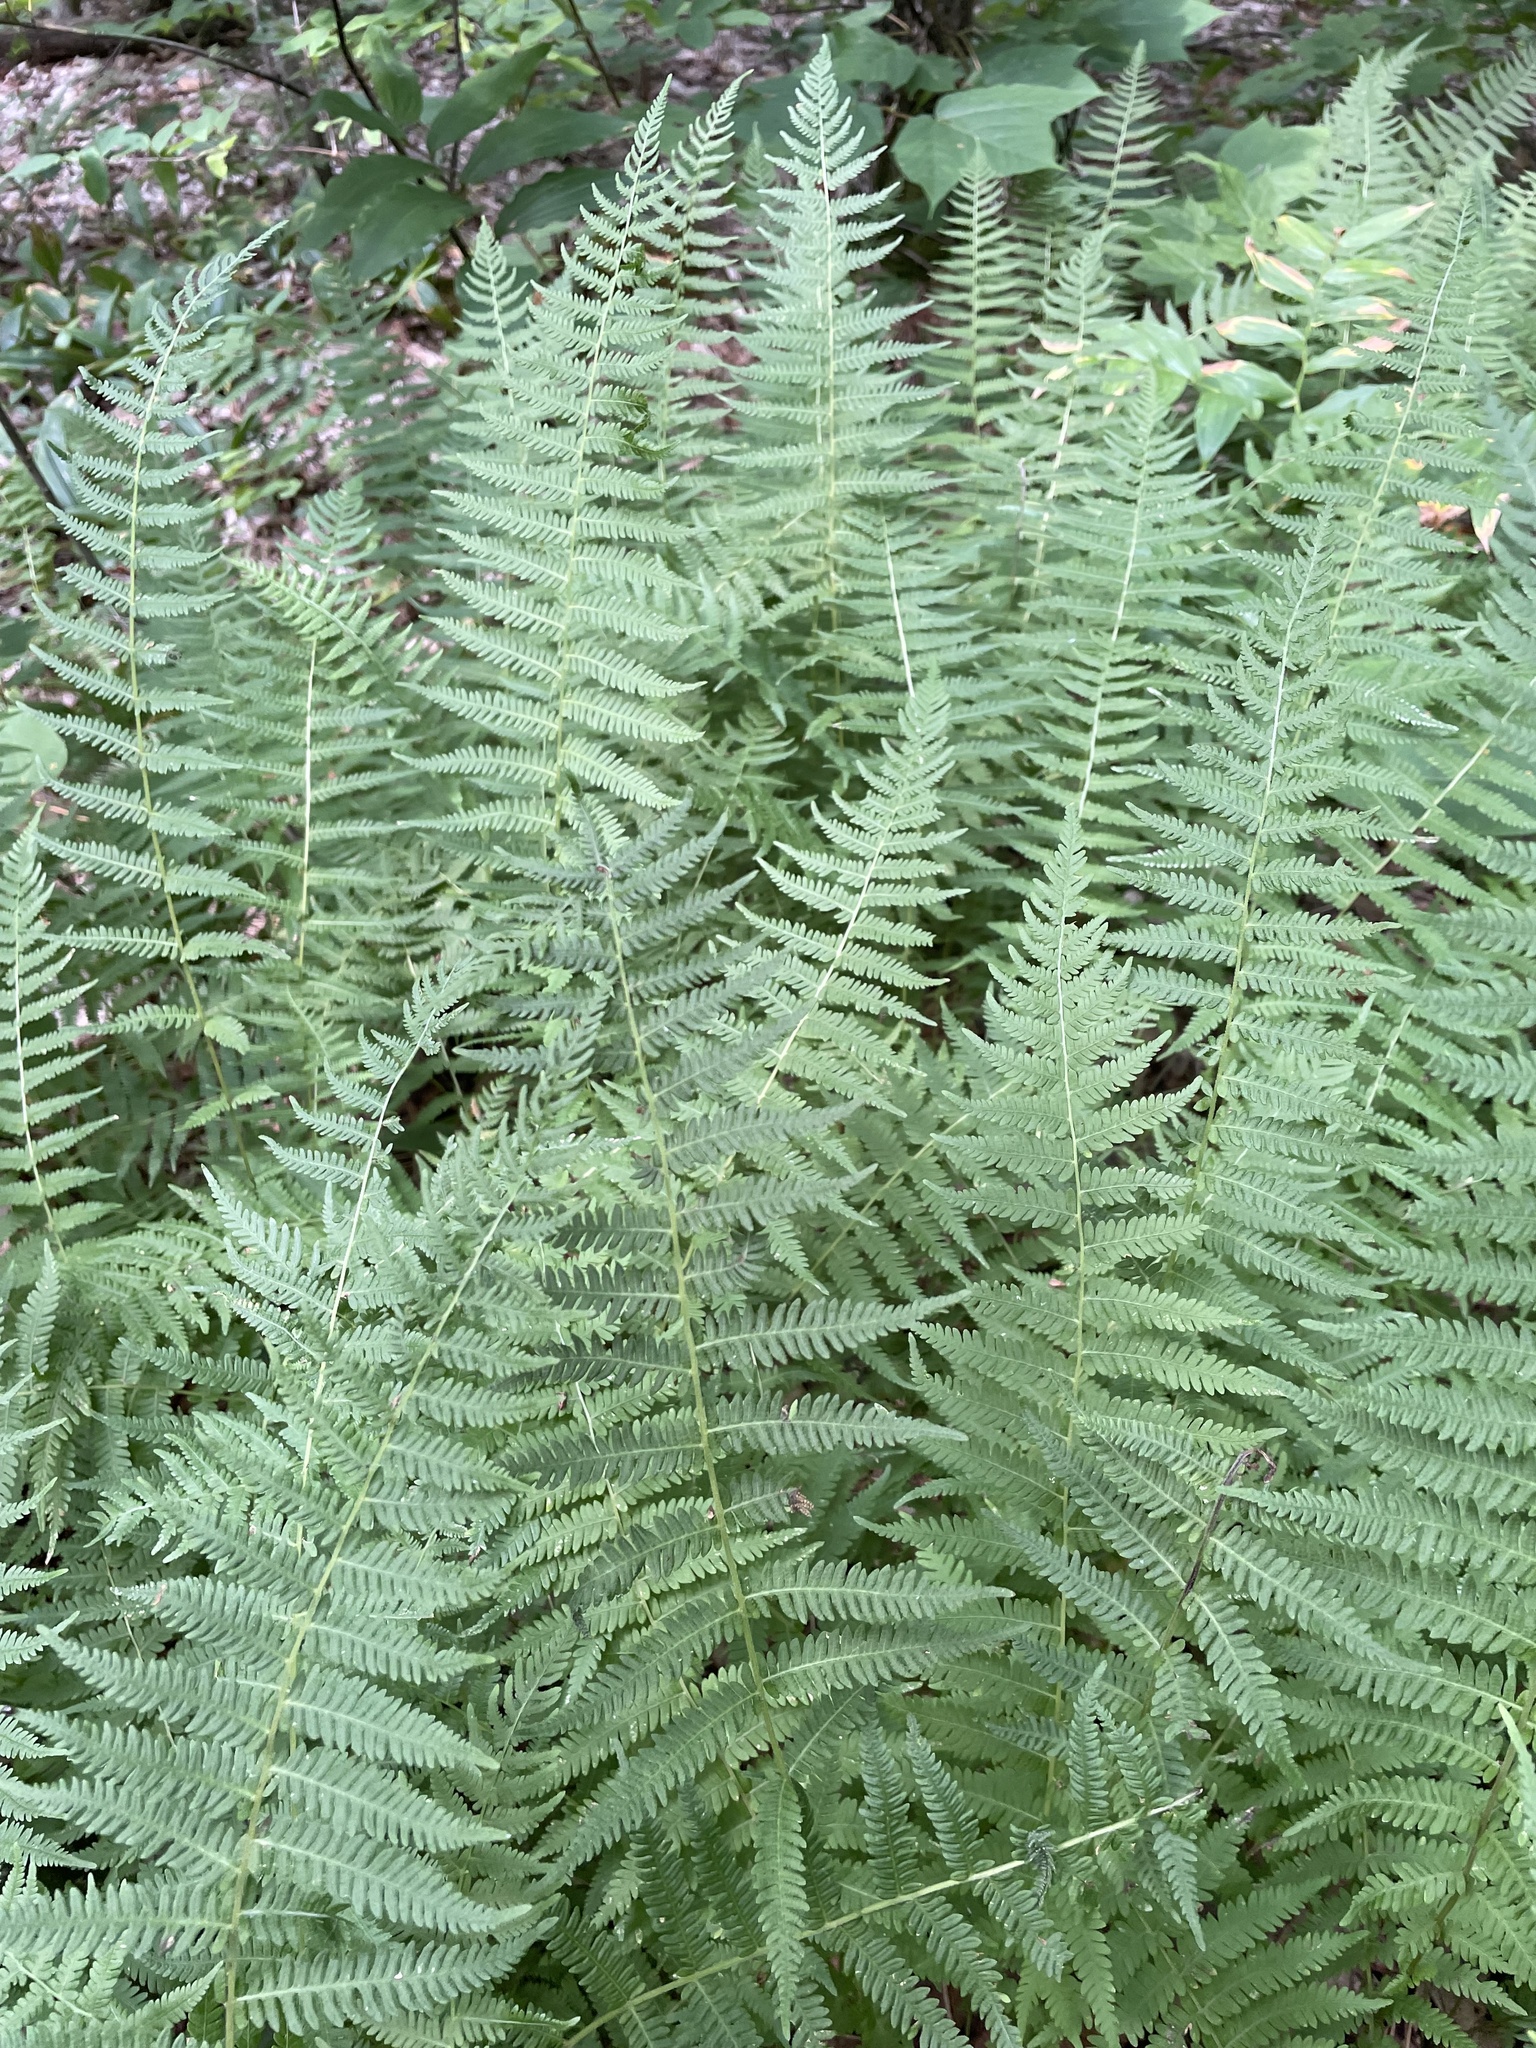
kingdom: Plantae
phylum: Tracheophyta
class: Polypodiopsida
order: Polypodiales
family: Thelypteridaceae
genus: Amauropelta
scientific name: Amauropelta noveboracensis
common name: New york fern
